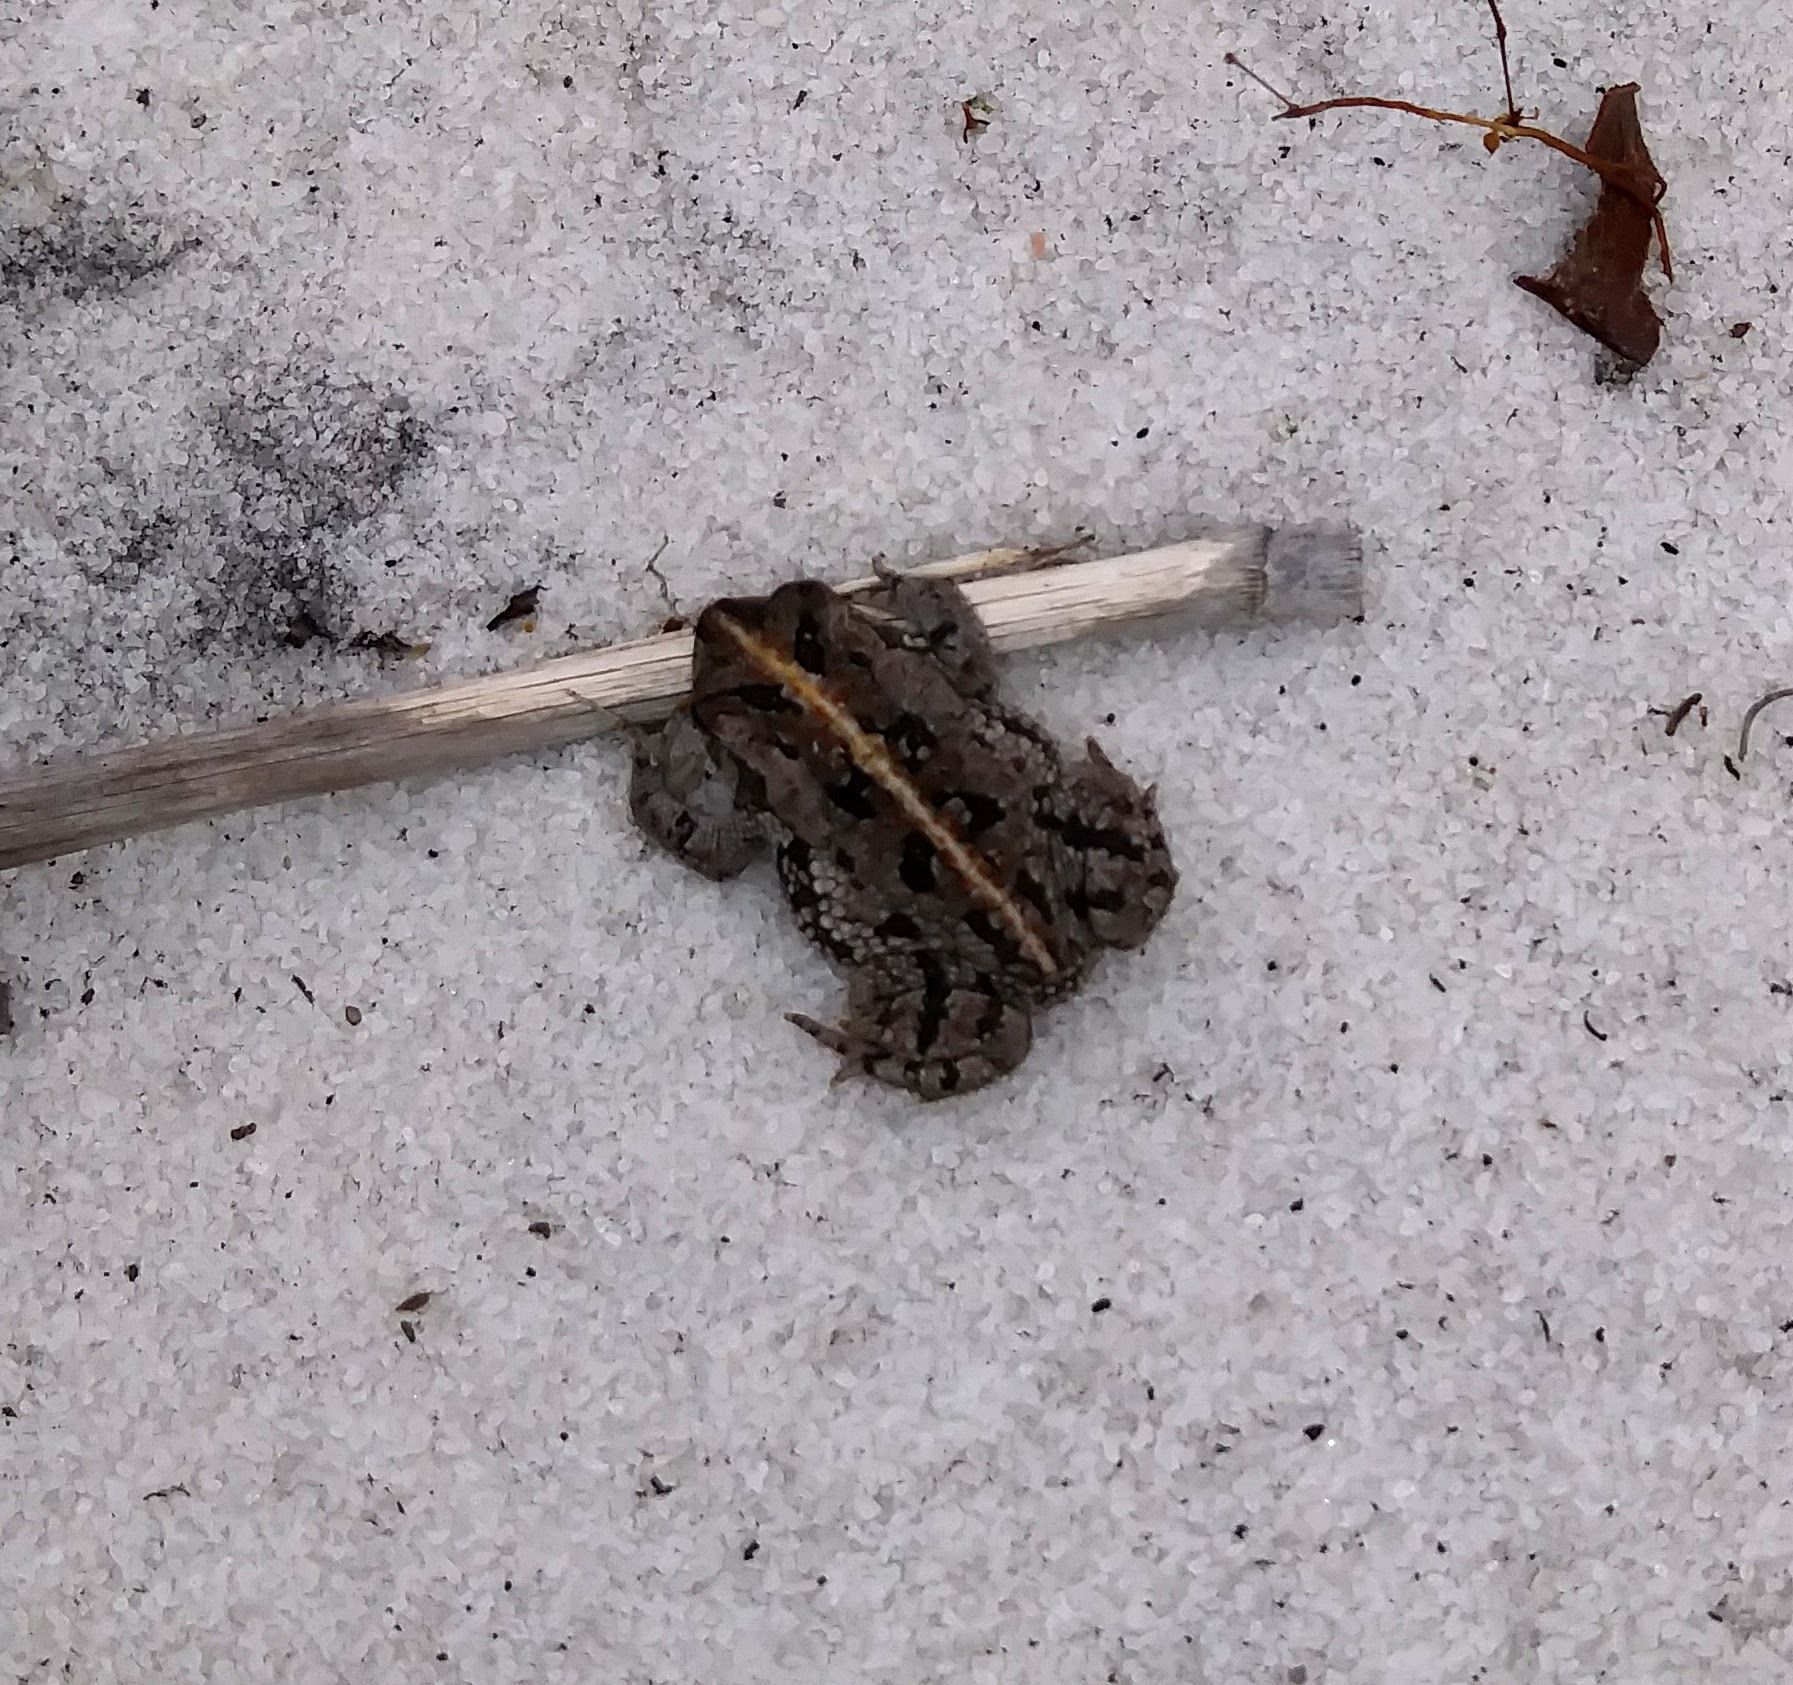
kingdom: Animalia
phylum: Chordata
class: Amphibia
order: Anura
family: Bufonidae
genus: Anaxyrus
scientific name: Anaxyrus quercicus
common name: Oak toad
